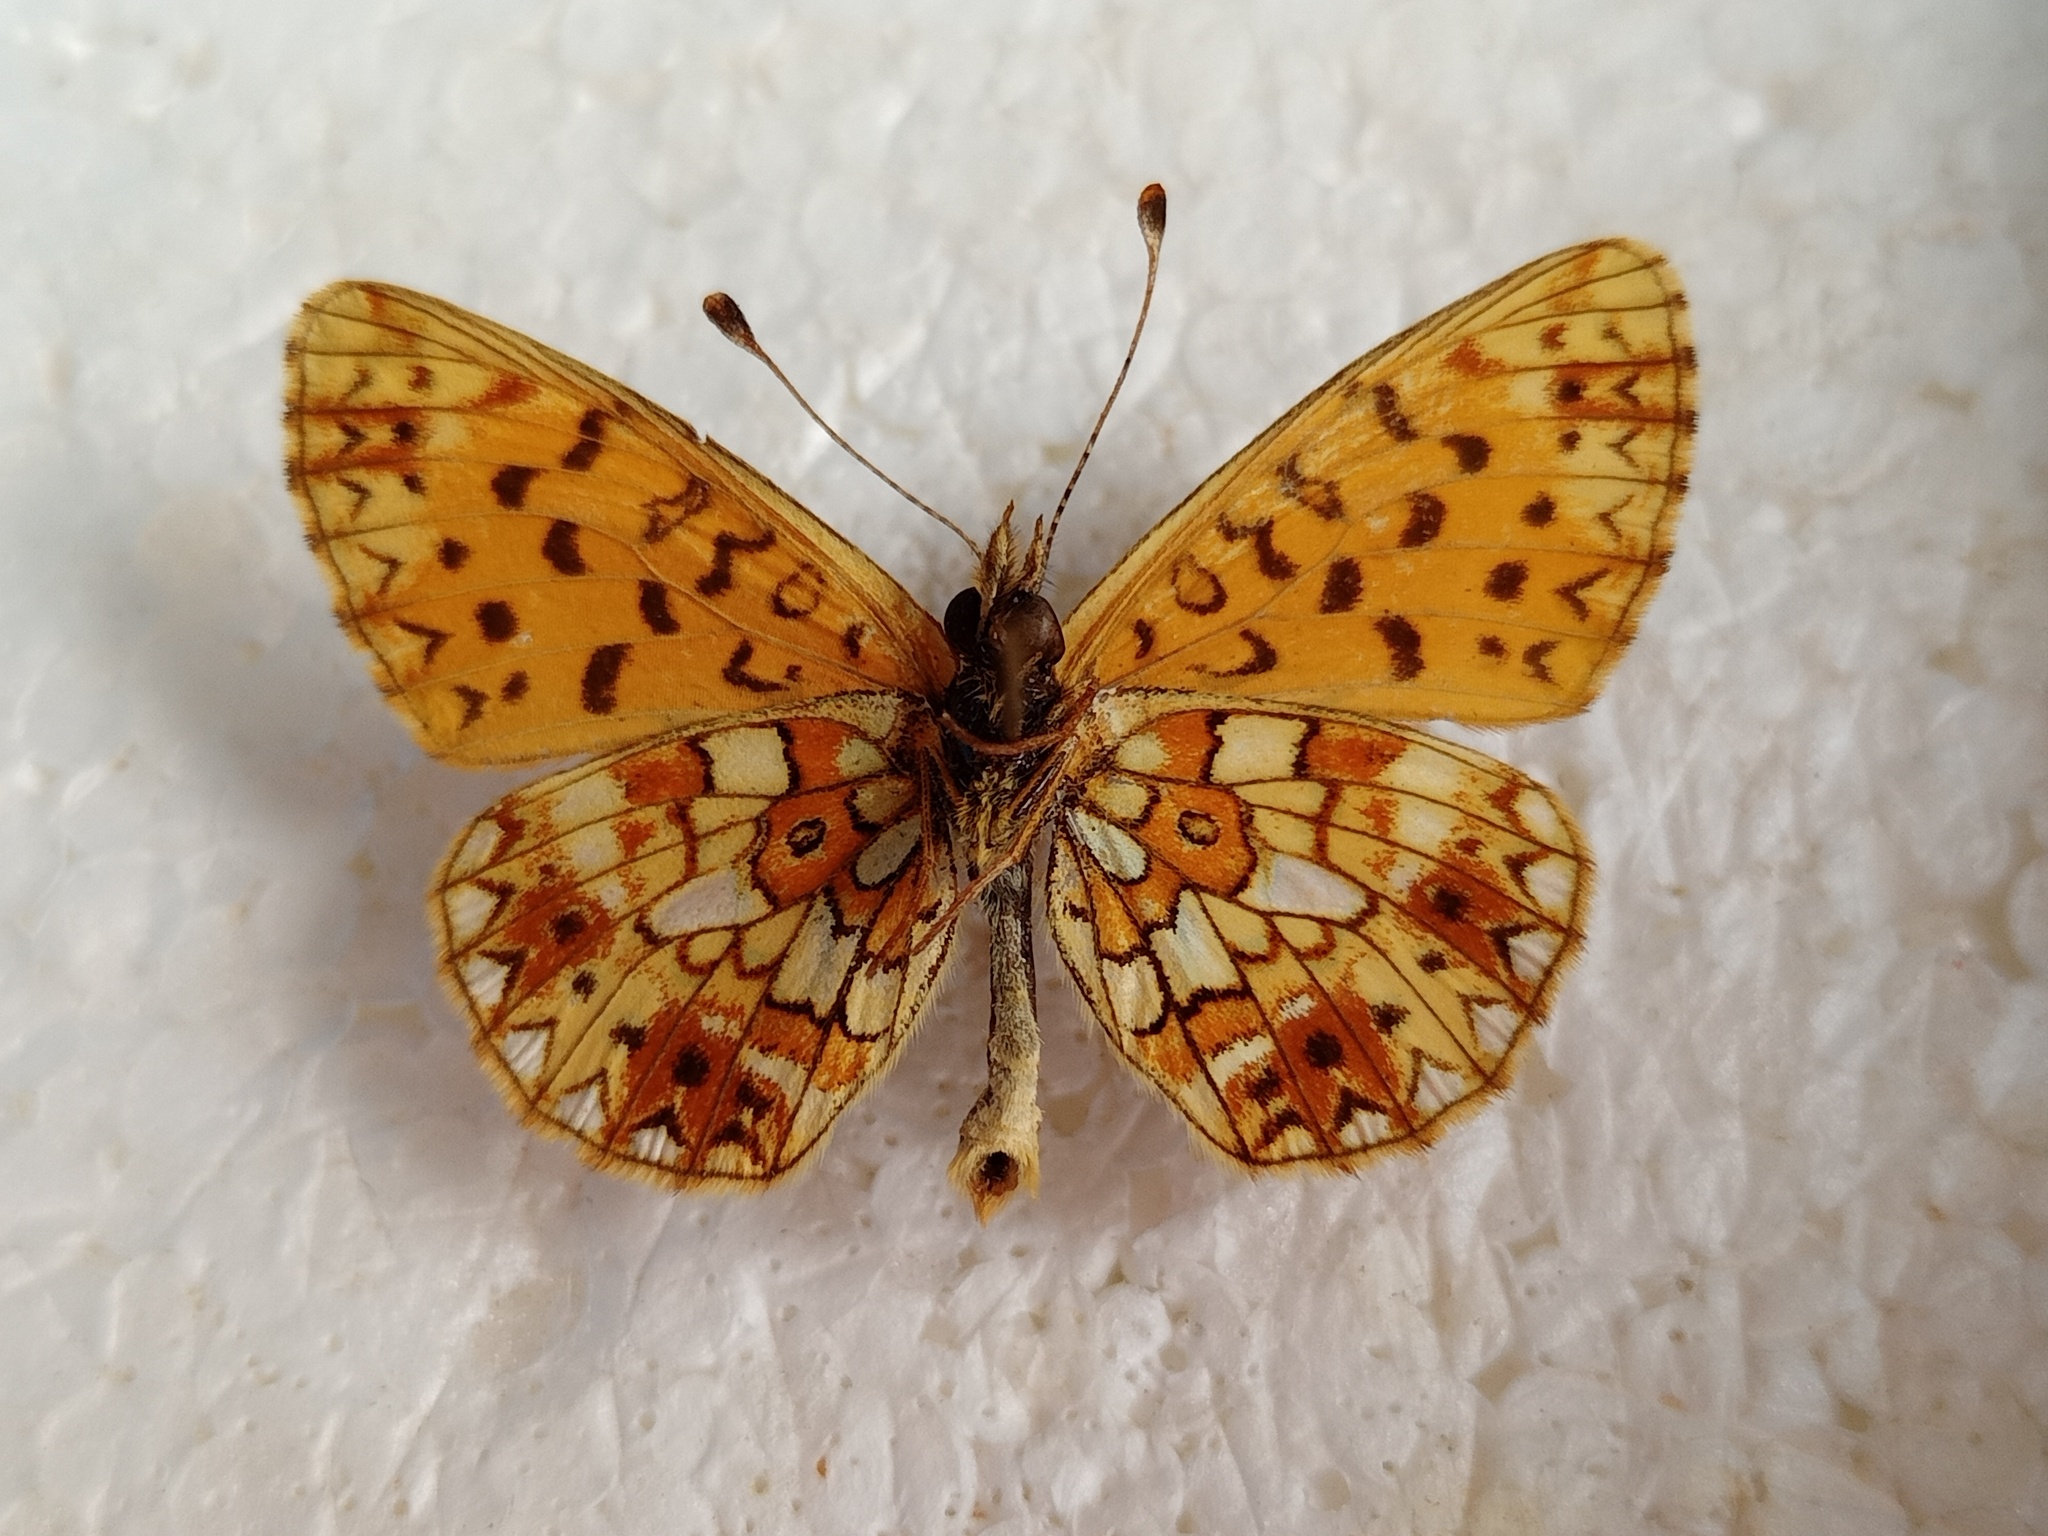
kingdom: Animalia
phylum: Arthropoda
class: Insecta
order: Lepidoptera
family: Nymphalidae
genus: Boloria
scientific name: Boloria selene
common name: Small pearl-bordered fritillary
